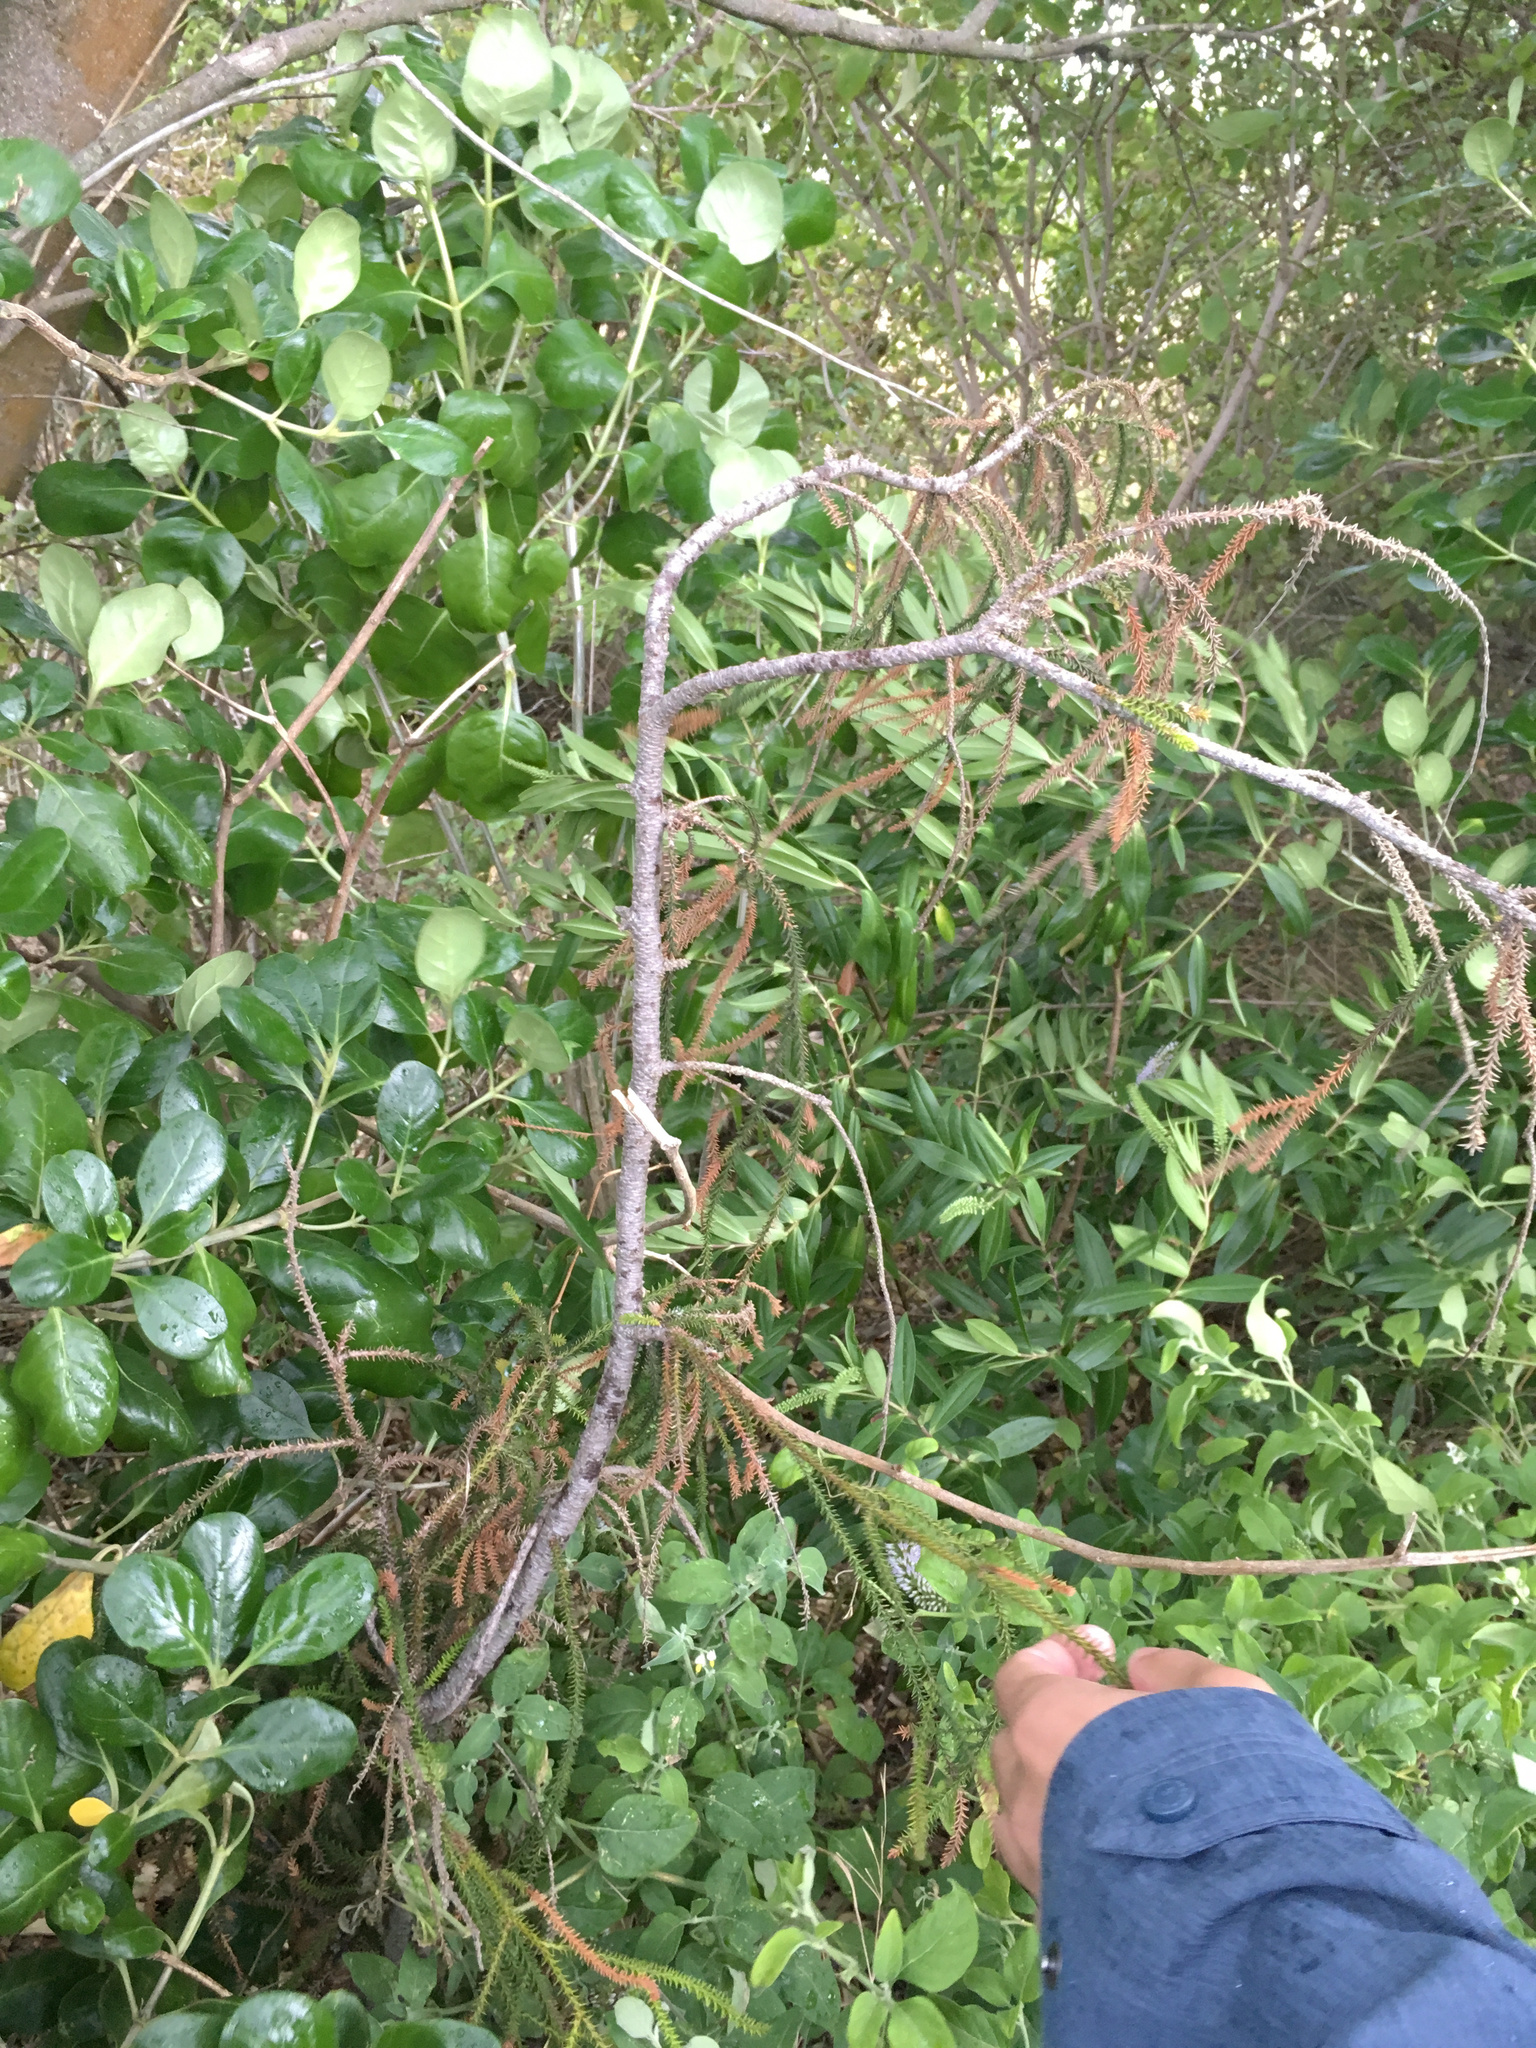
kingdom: Plantae
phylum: Tracheophyta
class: Pinopsida
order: Pinales
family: Podocarpaceae
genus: Dacrycarpus
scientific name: Dacrycarpus dacrydioides
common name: White pine
